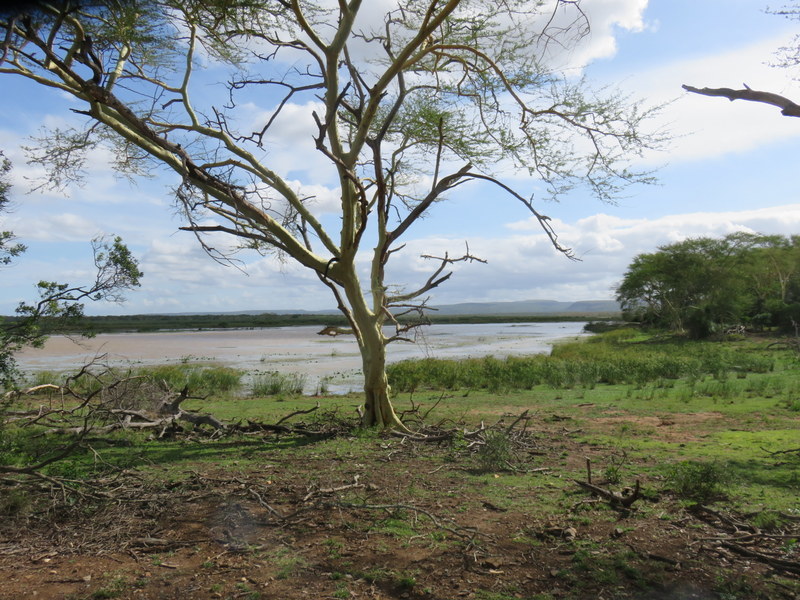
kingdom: Plantae
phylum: Tracheophyta
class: Magnoliopsida
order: Fabales
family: Fabaceae
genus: Vachellia
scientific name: Vachellia xanthophloea
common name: Fever tree
